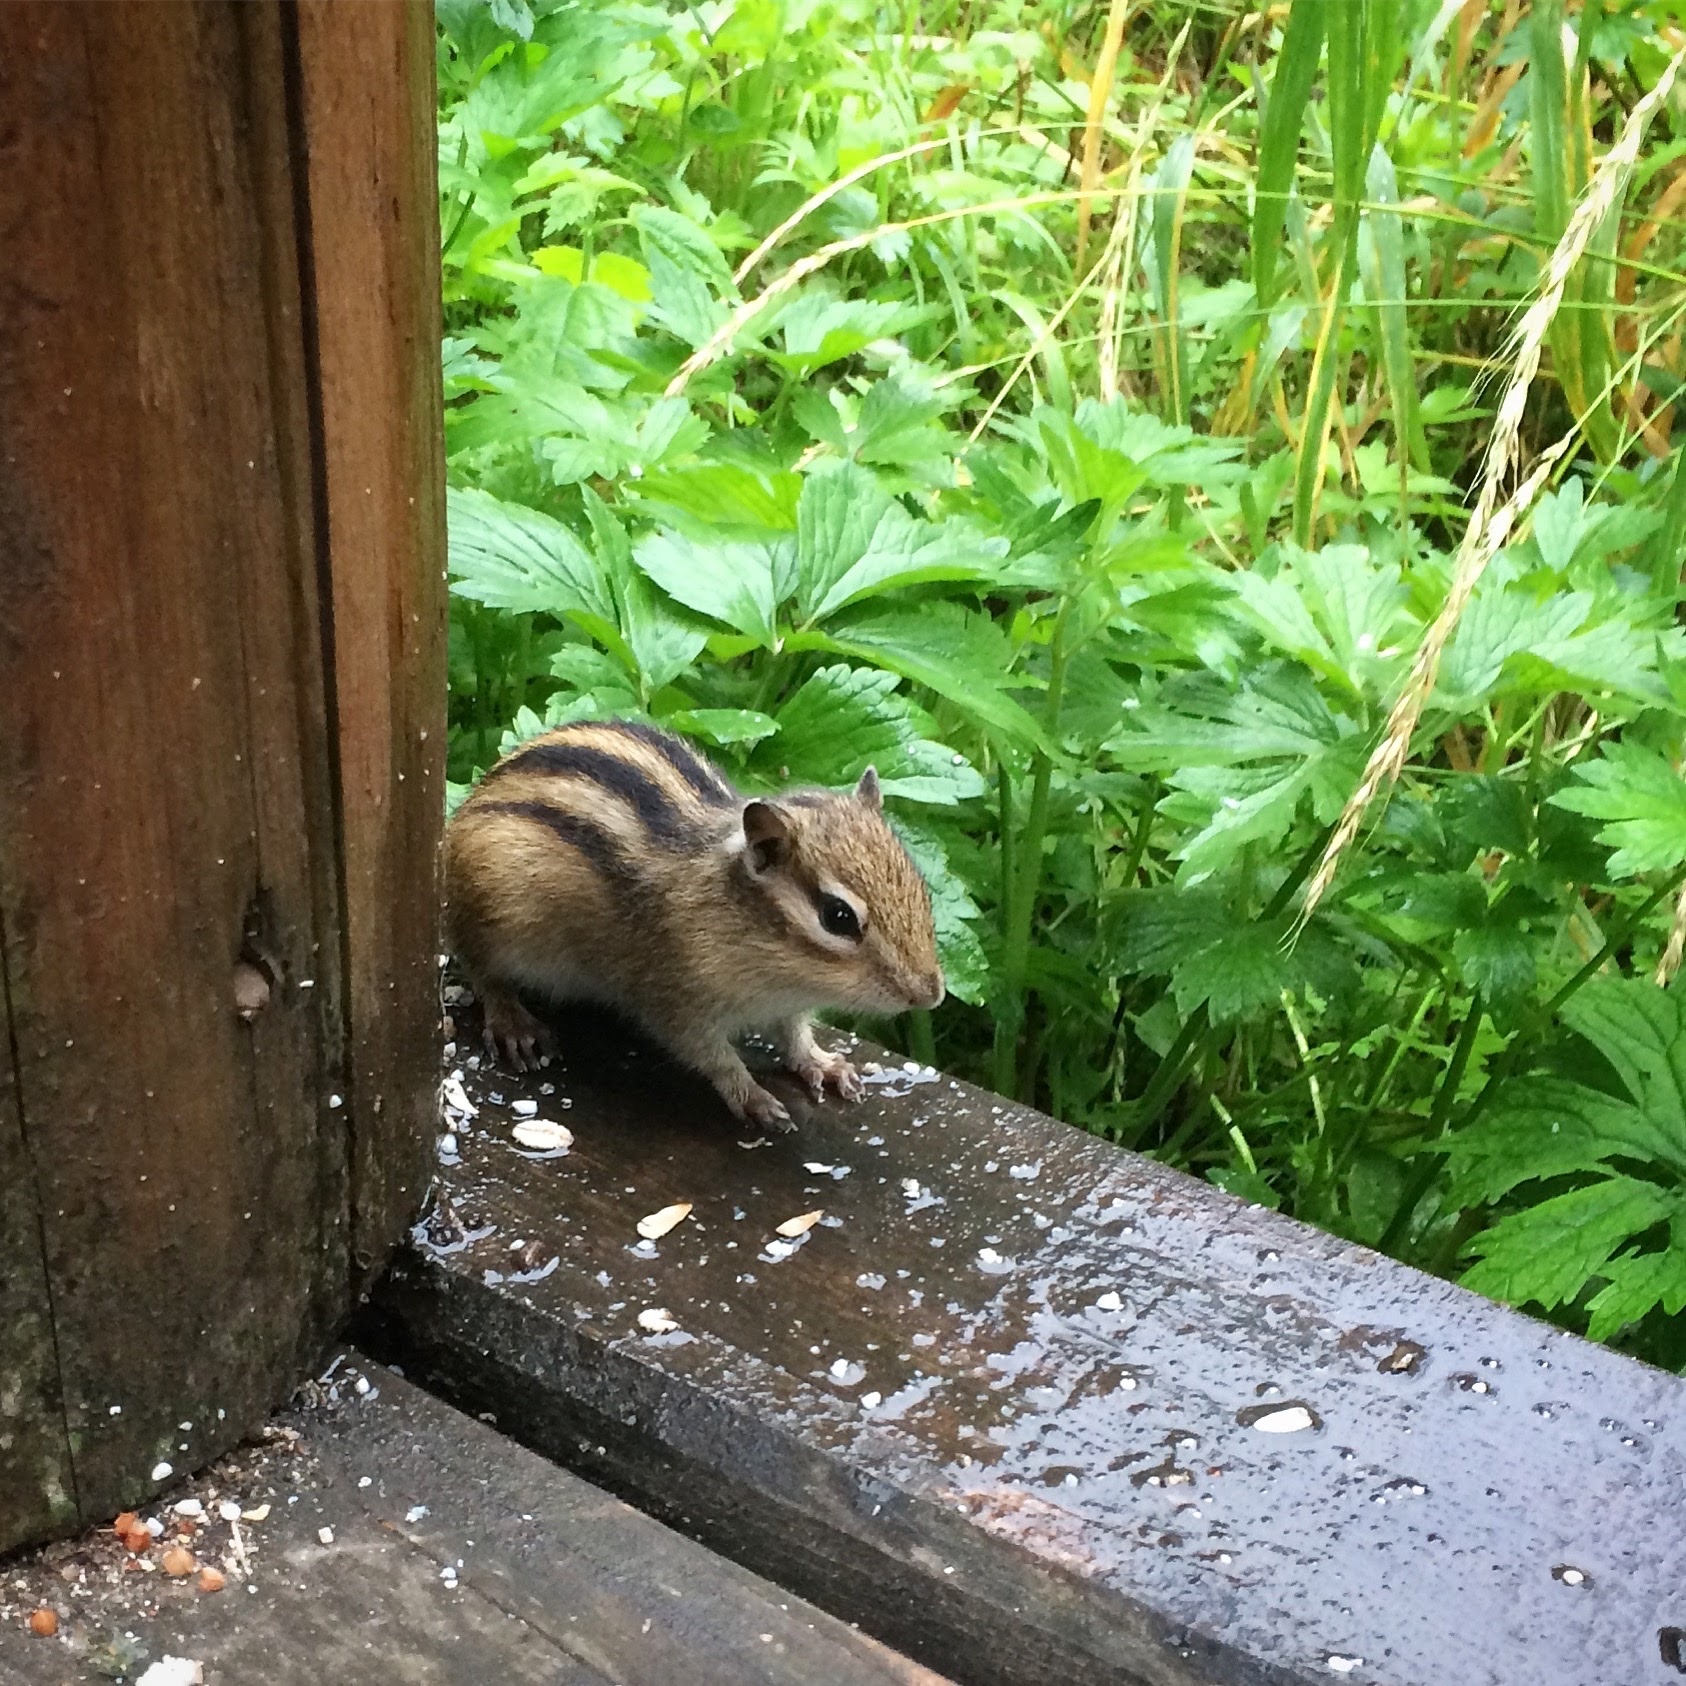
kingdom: Animalia
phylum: Chordata
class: Mammalia
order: Rodentia
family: Sciuridae
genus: Tamias
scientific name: Tamias sibiricus
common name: Siberian chipmunk
